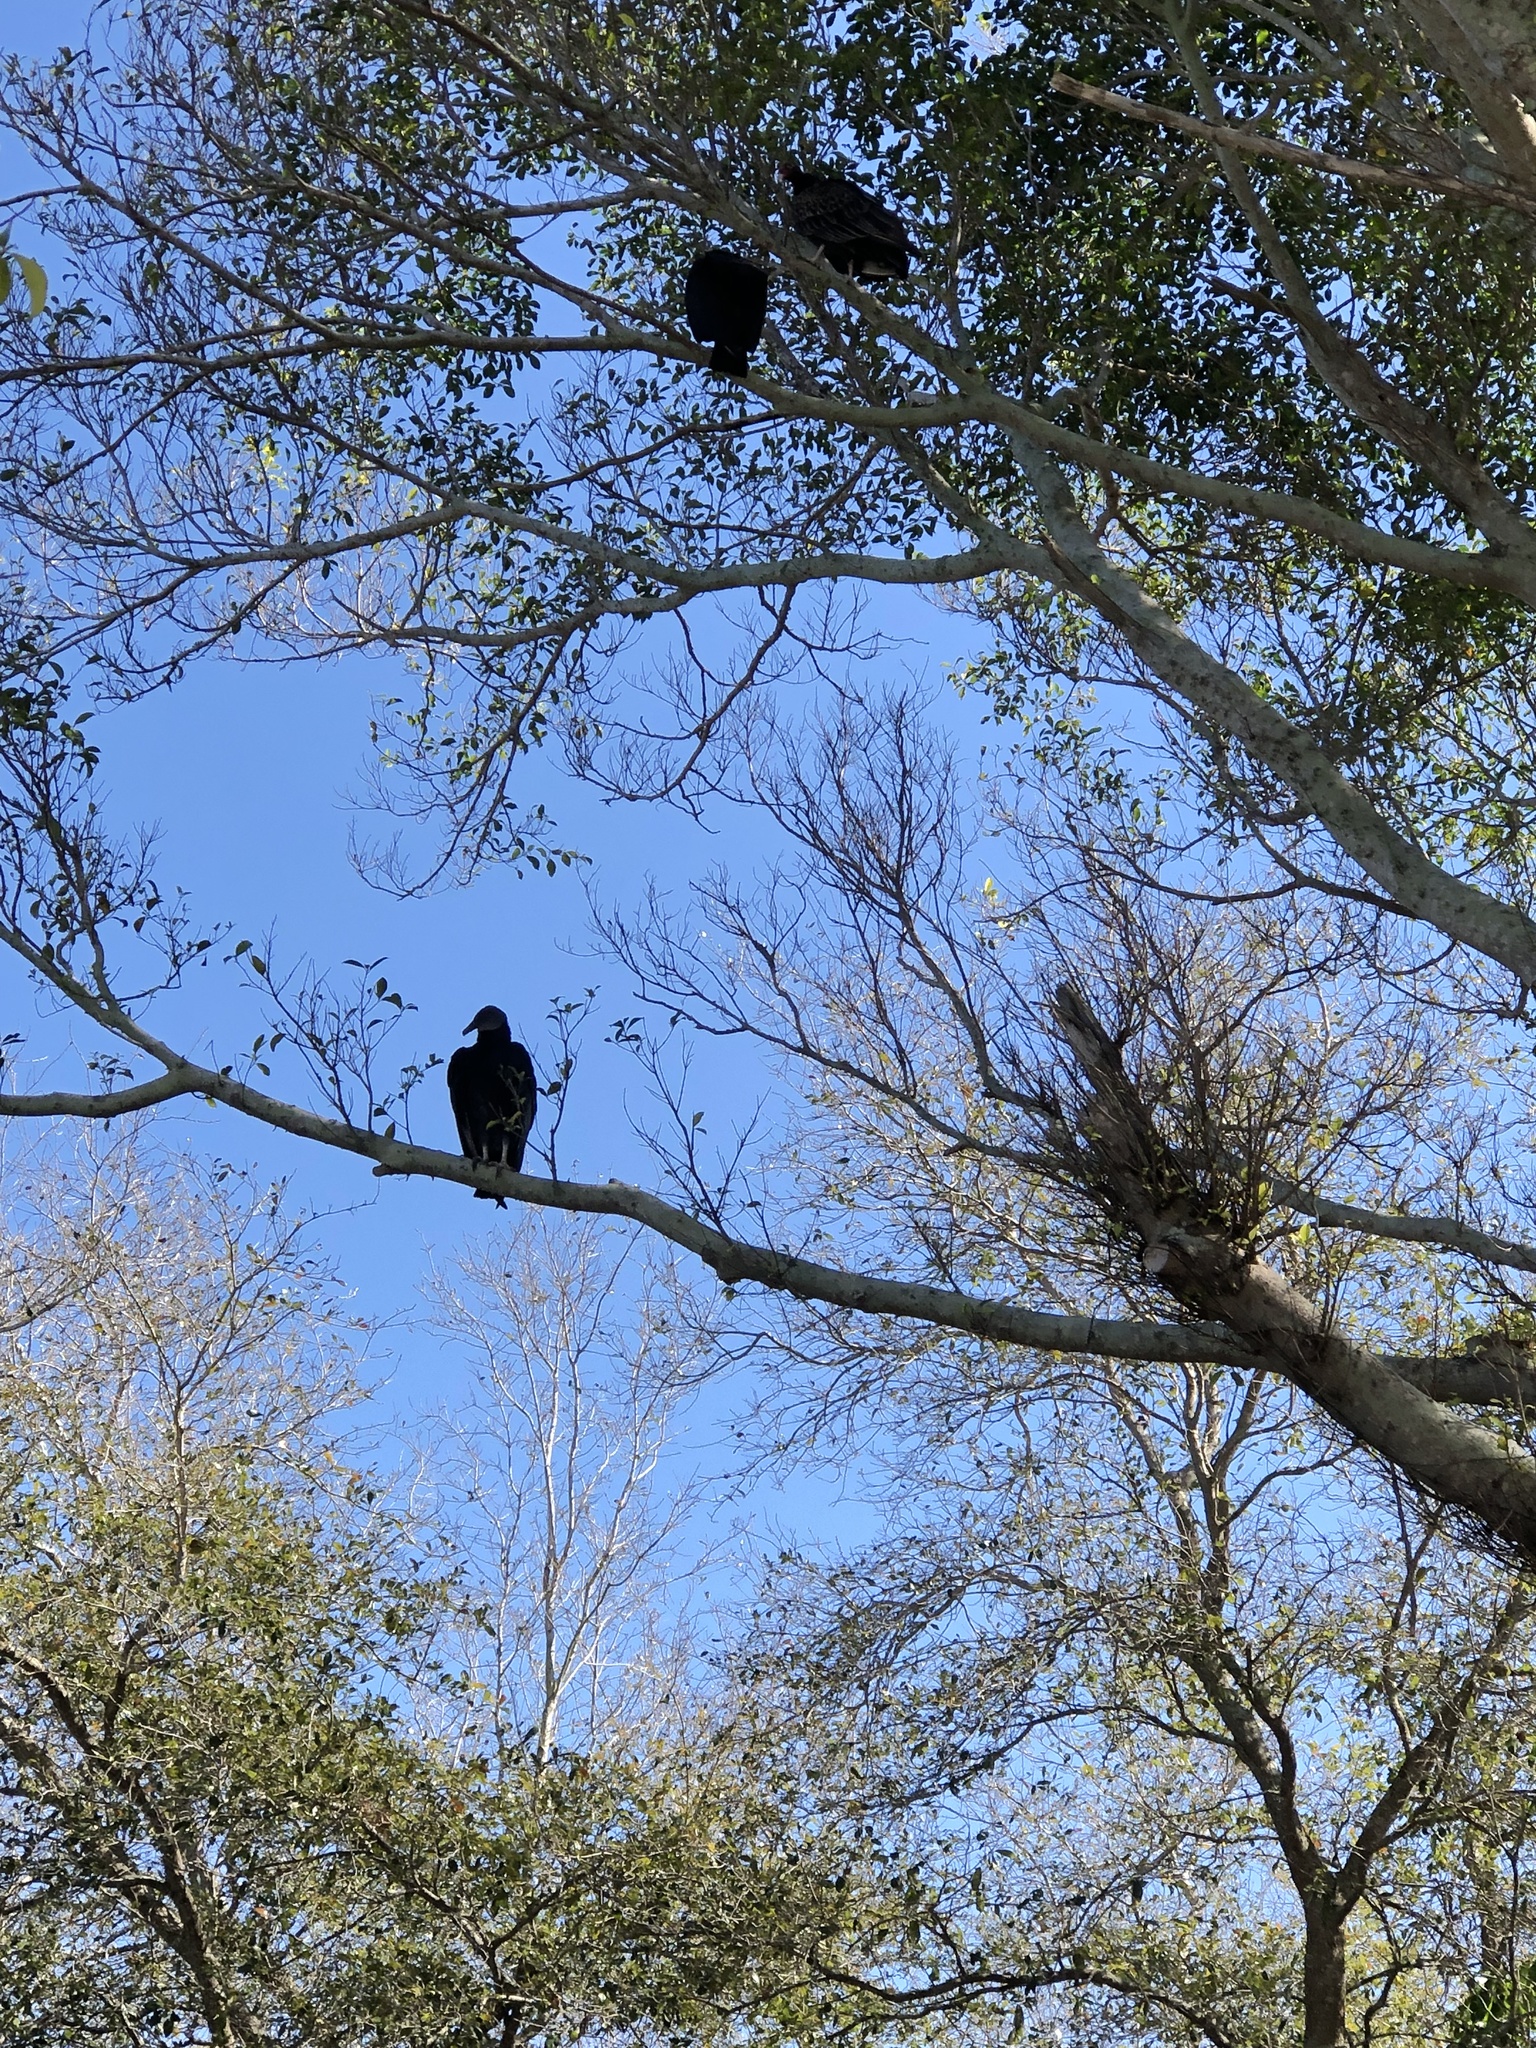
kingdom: Animalia
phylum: Chordata
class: Aves
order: Accipitriformes
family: Cathartidae
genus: Coragyps
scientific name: Coragyps atratus
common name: Black vulture
